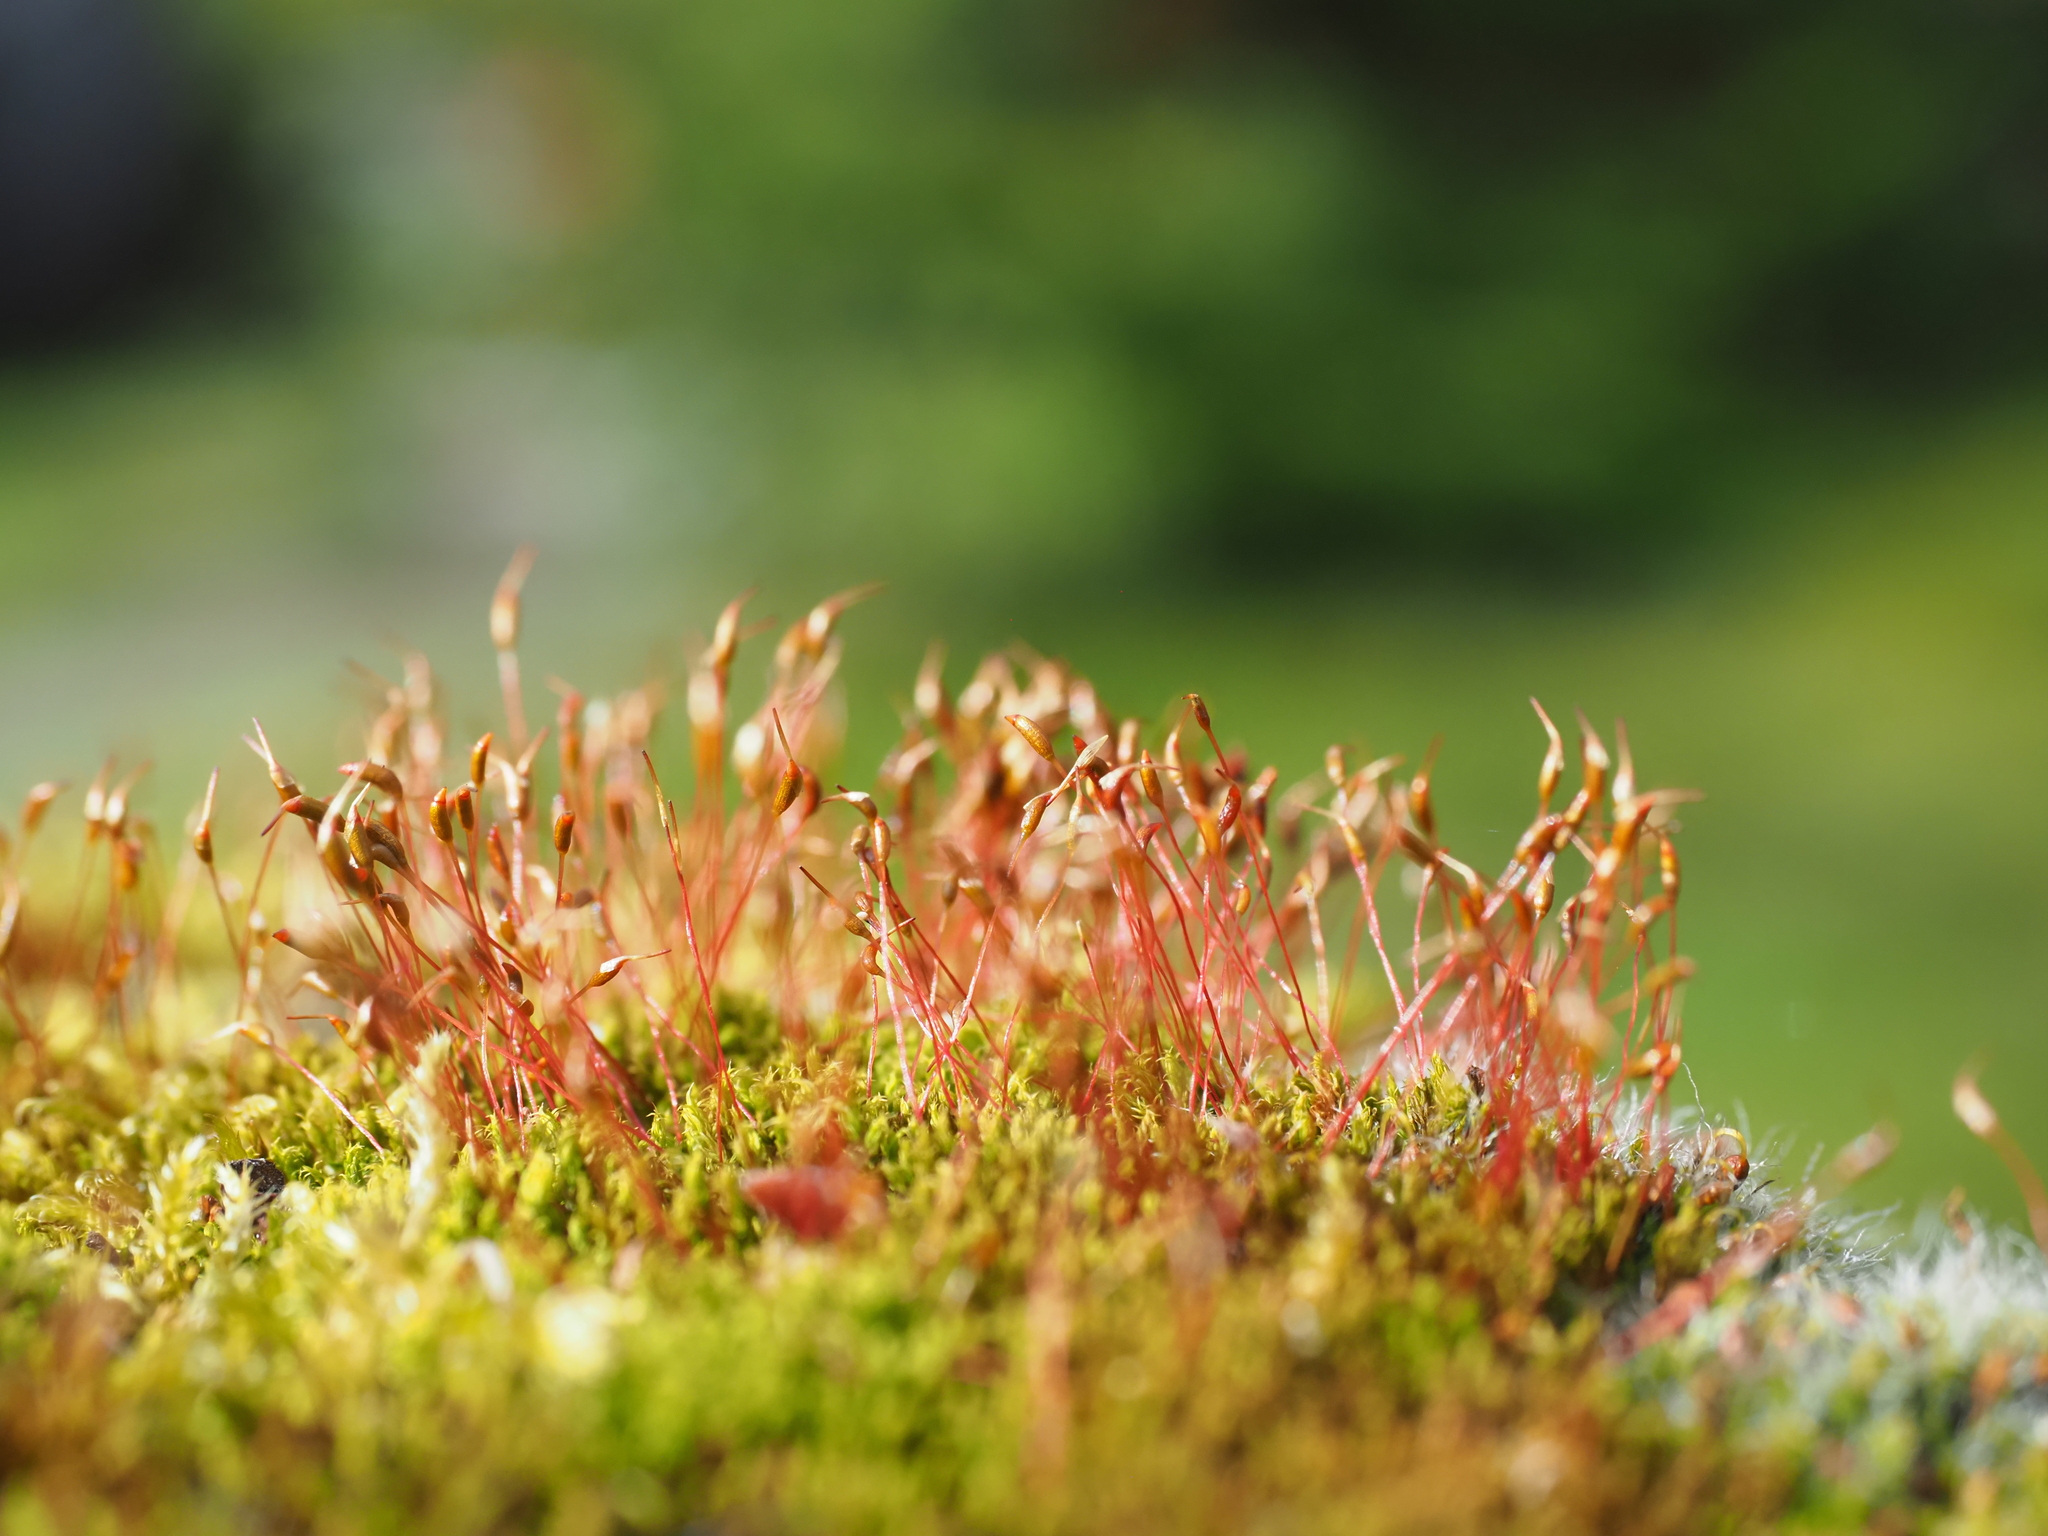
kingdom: Plantae
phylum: Bryophyta
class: Bryopsida
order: Dicranales
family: Ditrichaceae
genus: Ceratodon
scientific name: Ceratodon purpureus
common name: Redshank
